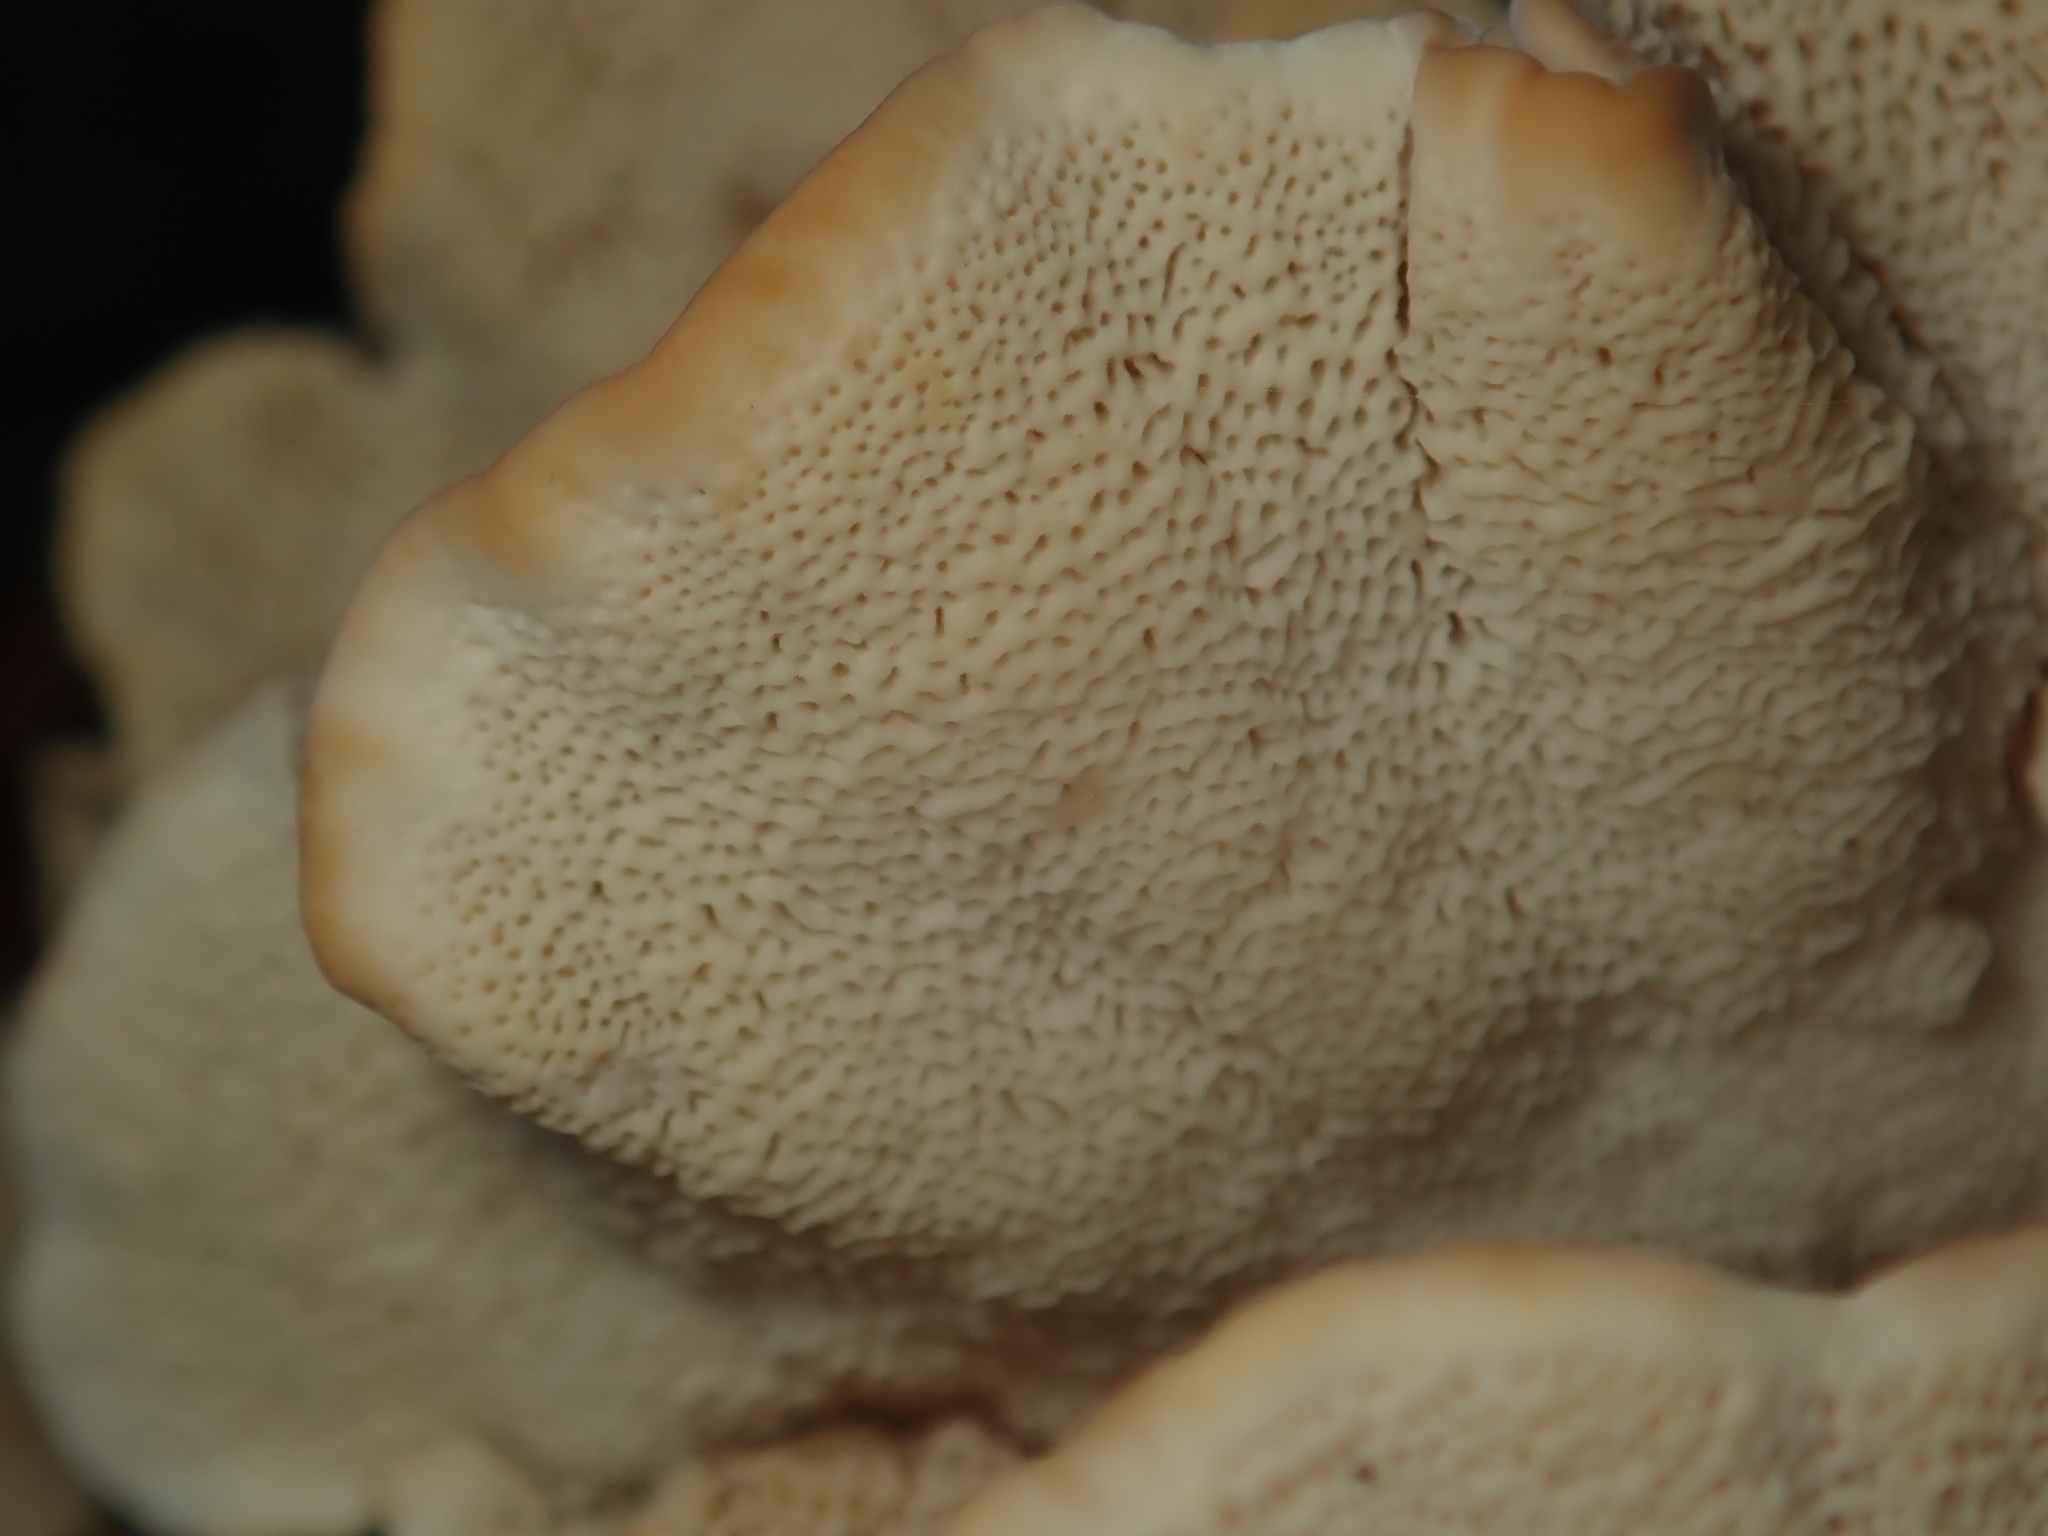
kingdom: Fungi
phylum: Basidiomycota
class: Agaricomycetes
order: Polyporales
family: Polyporaceae
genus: Trametes
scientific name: Trametes versicolor
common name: Turkeytail
